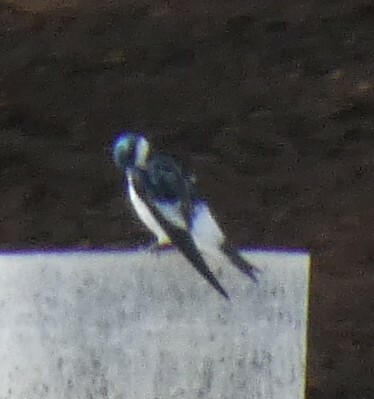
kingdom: Animalia
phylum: Chordata
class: Aves
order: Passeriformes
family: Hirundinidae
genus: Tachycineta
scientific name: Tachycineta albiventer
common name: White-winged swallow
